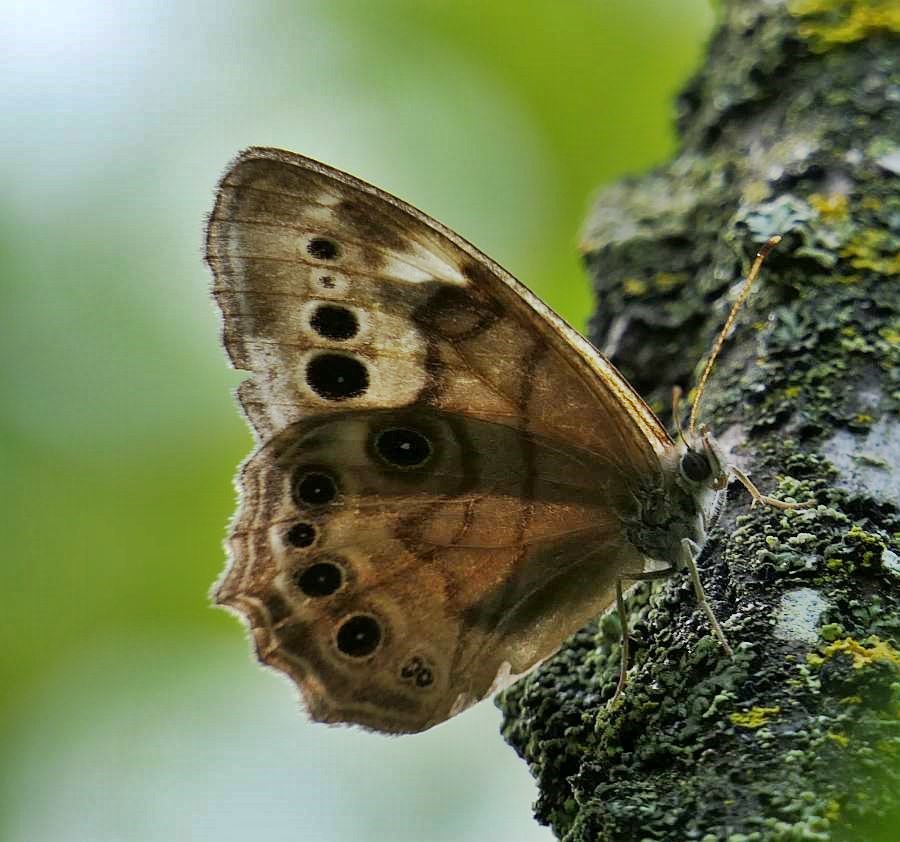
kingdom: Animalia
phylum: Arthropoda
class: Insecta
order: Lepidoptera
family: Nymphalidae
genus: Lethe
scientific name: Lethe anthedon
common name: Northern pearly-eye
